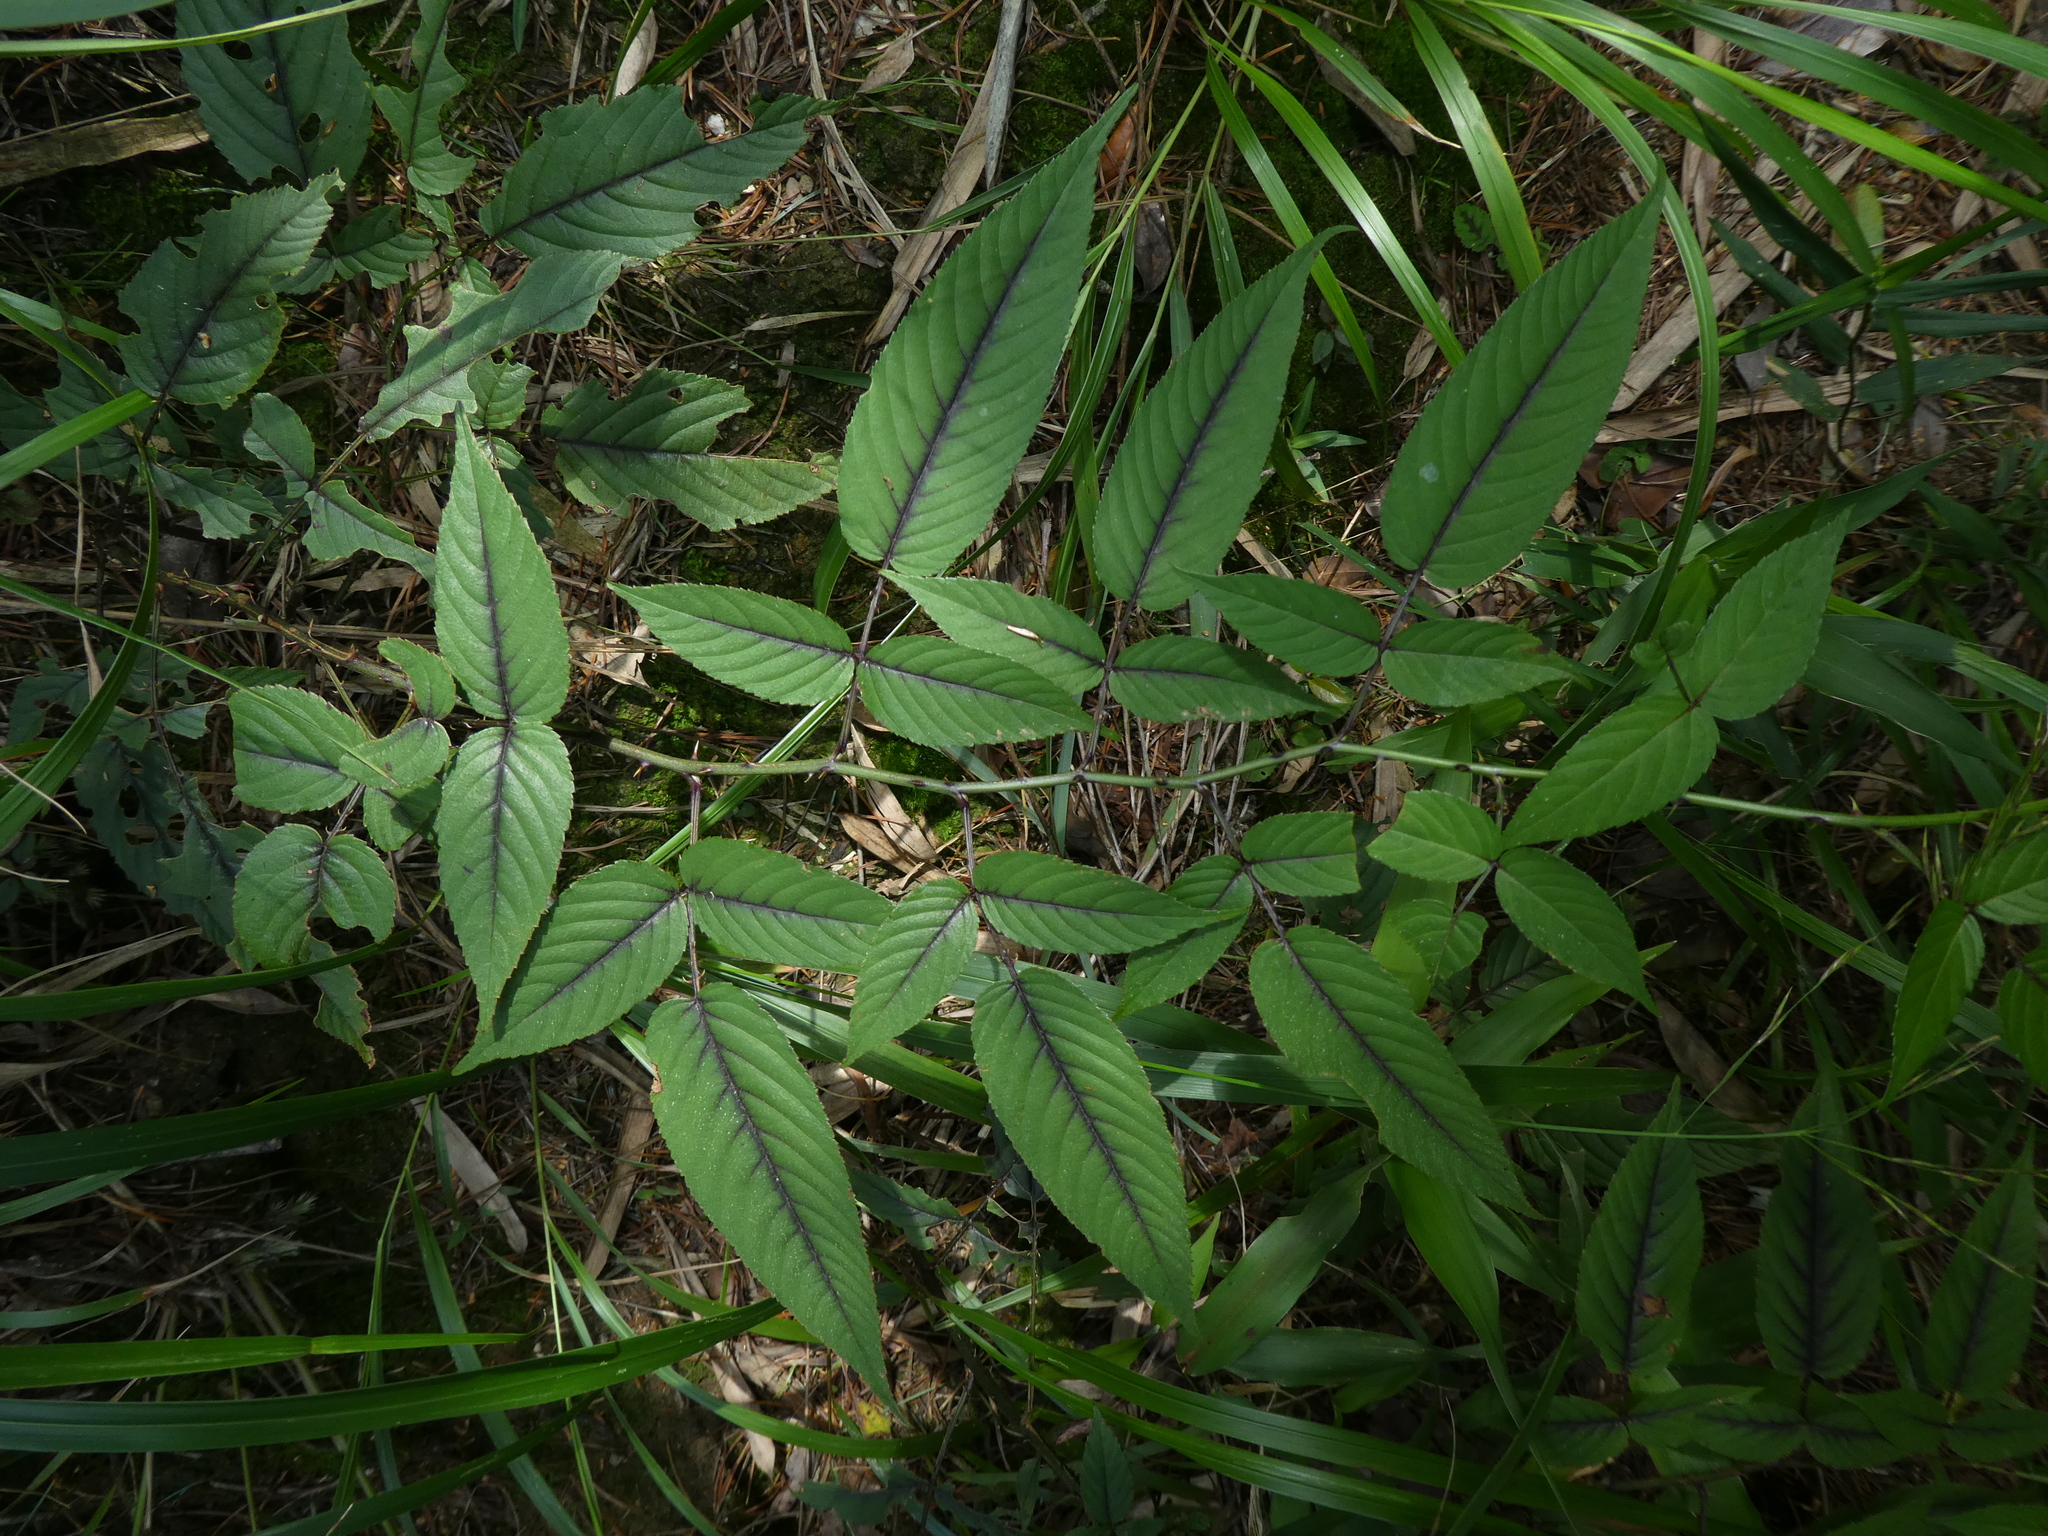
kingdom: Plantae
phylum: Tracheophyta
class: Magnoliopsida
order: Rosales
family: Rosaceae
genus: Rubus
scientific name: Rubus columellaris
